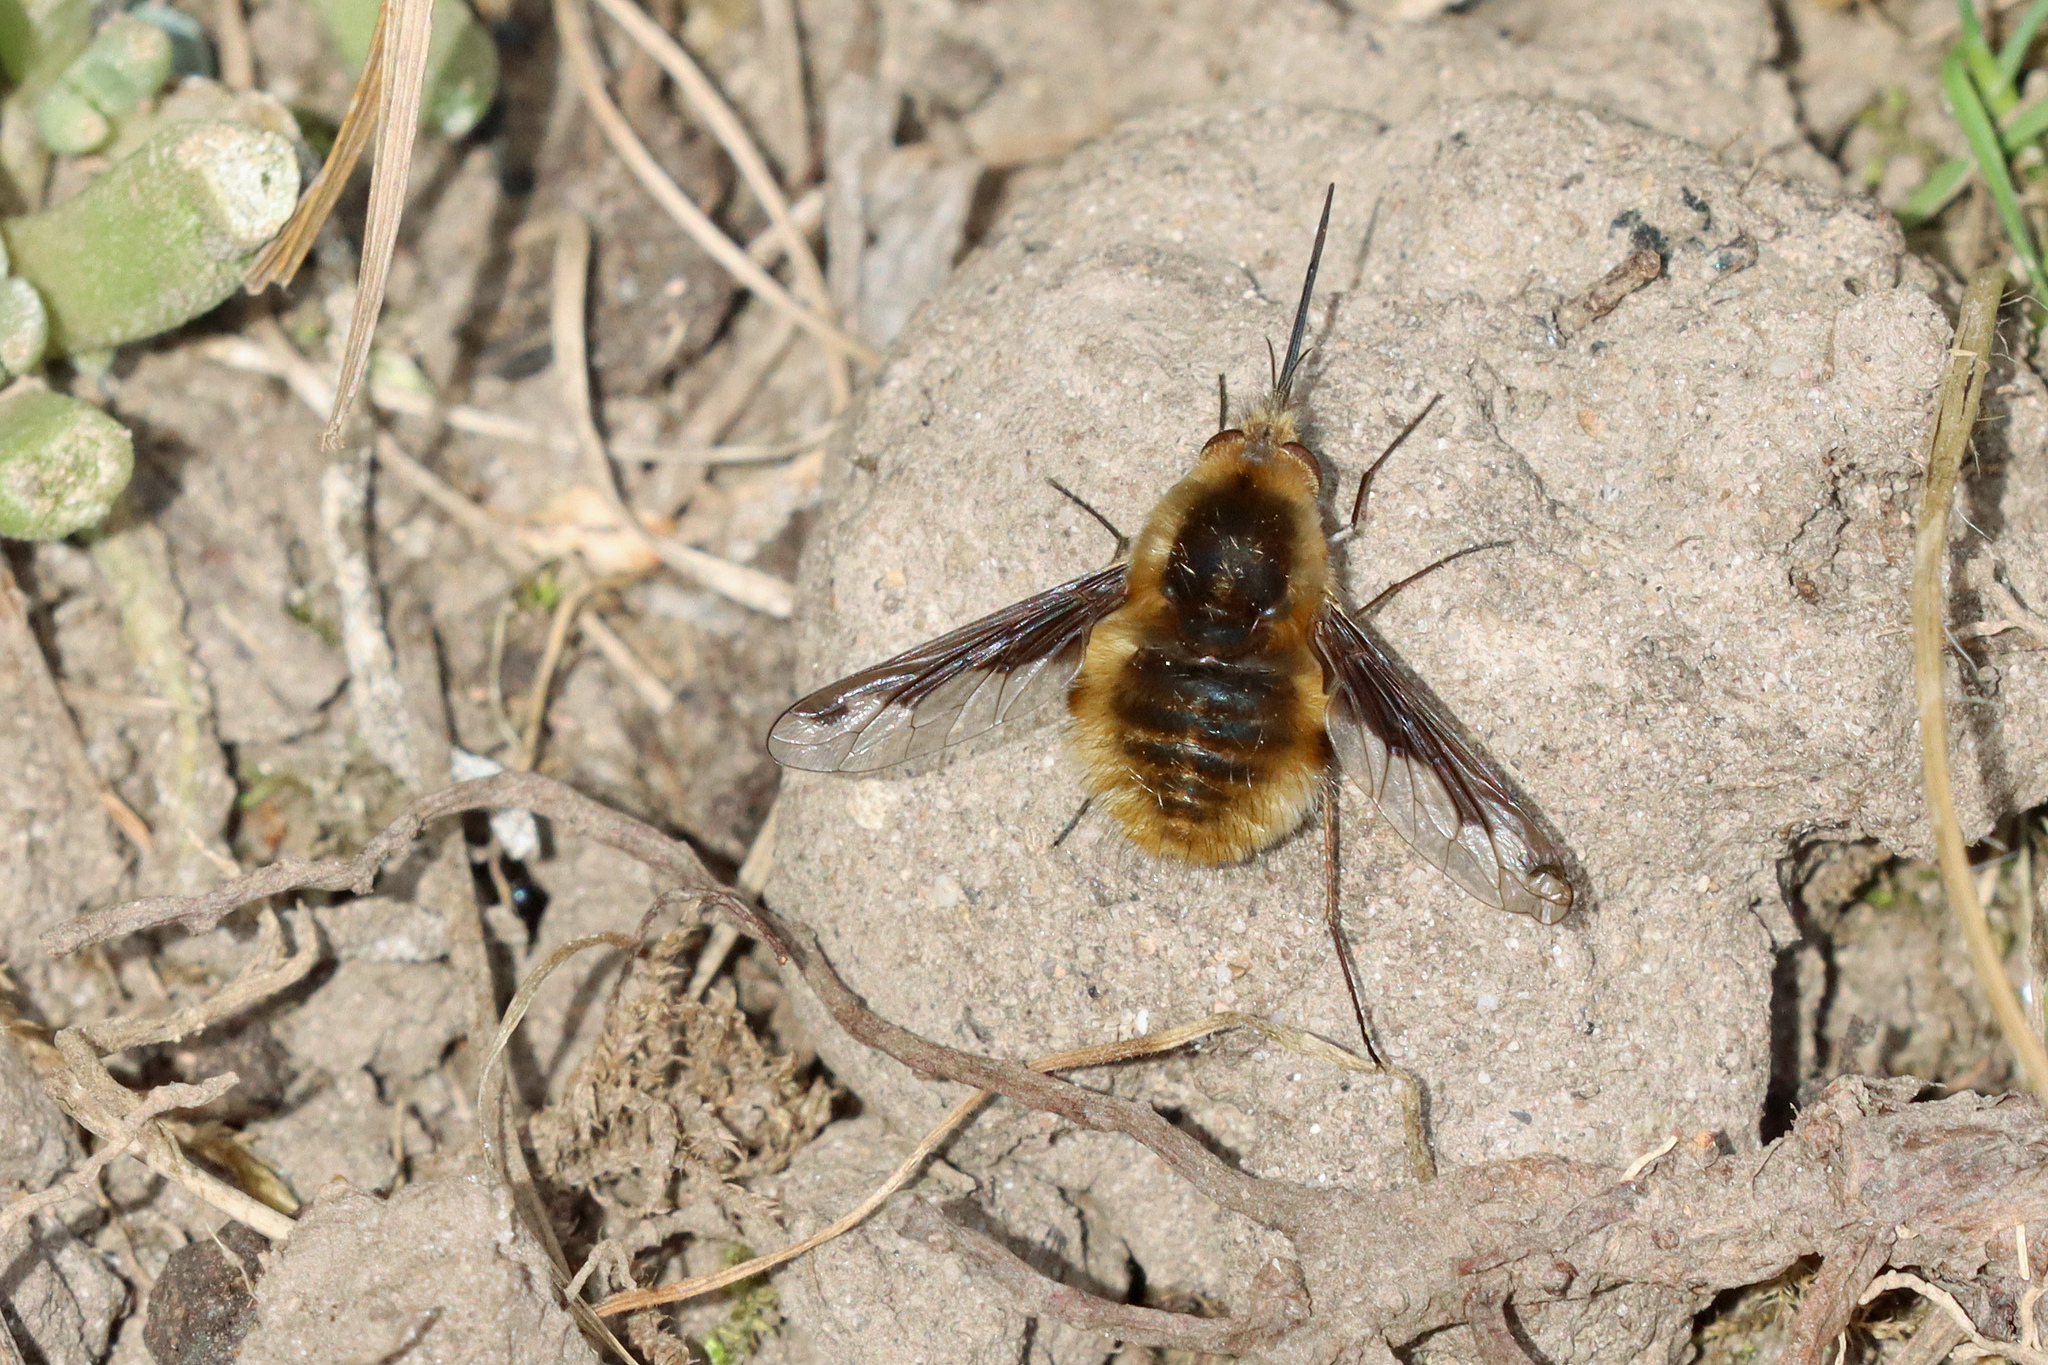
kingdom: Animalia
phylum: Arthropoda
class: Insecta
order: Diptera
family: Bombyliidae
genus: Bombylius
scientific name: Bombylius major
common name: Bee fly
